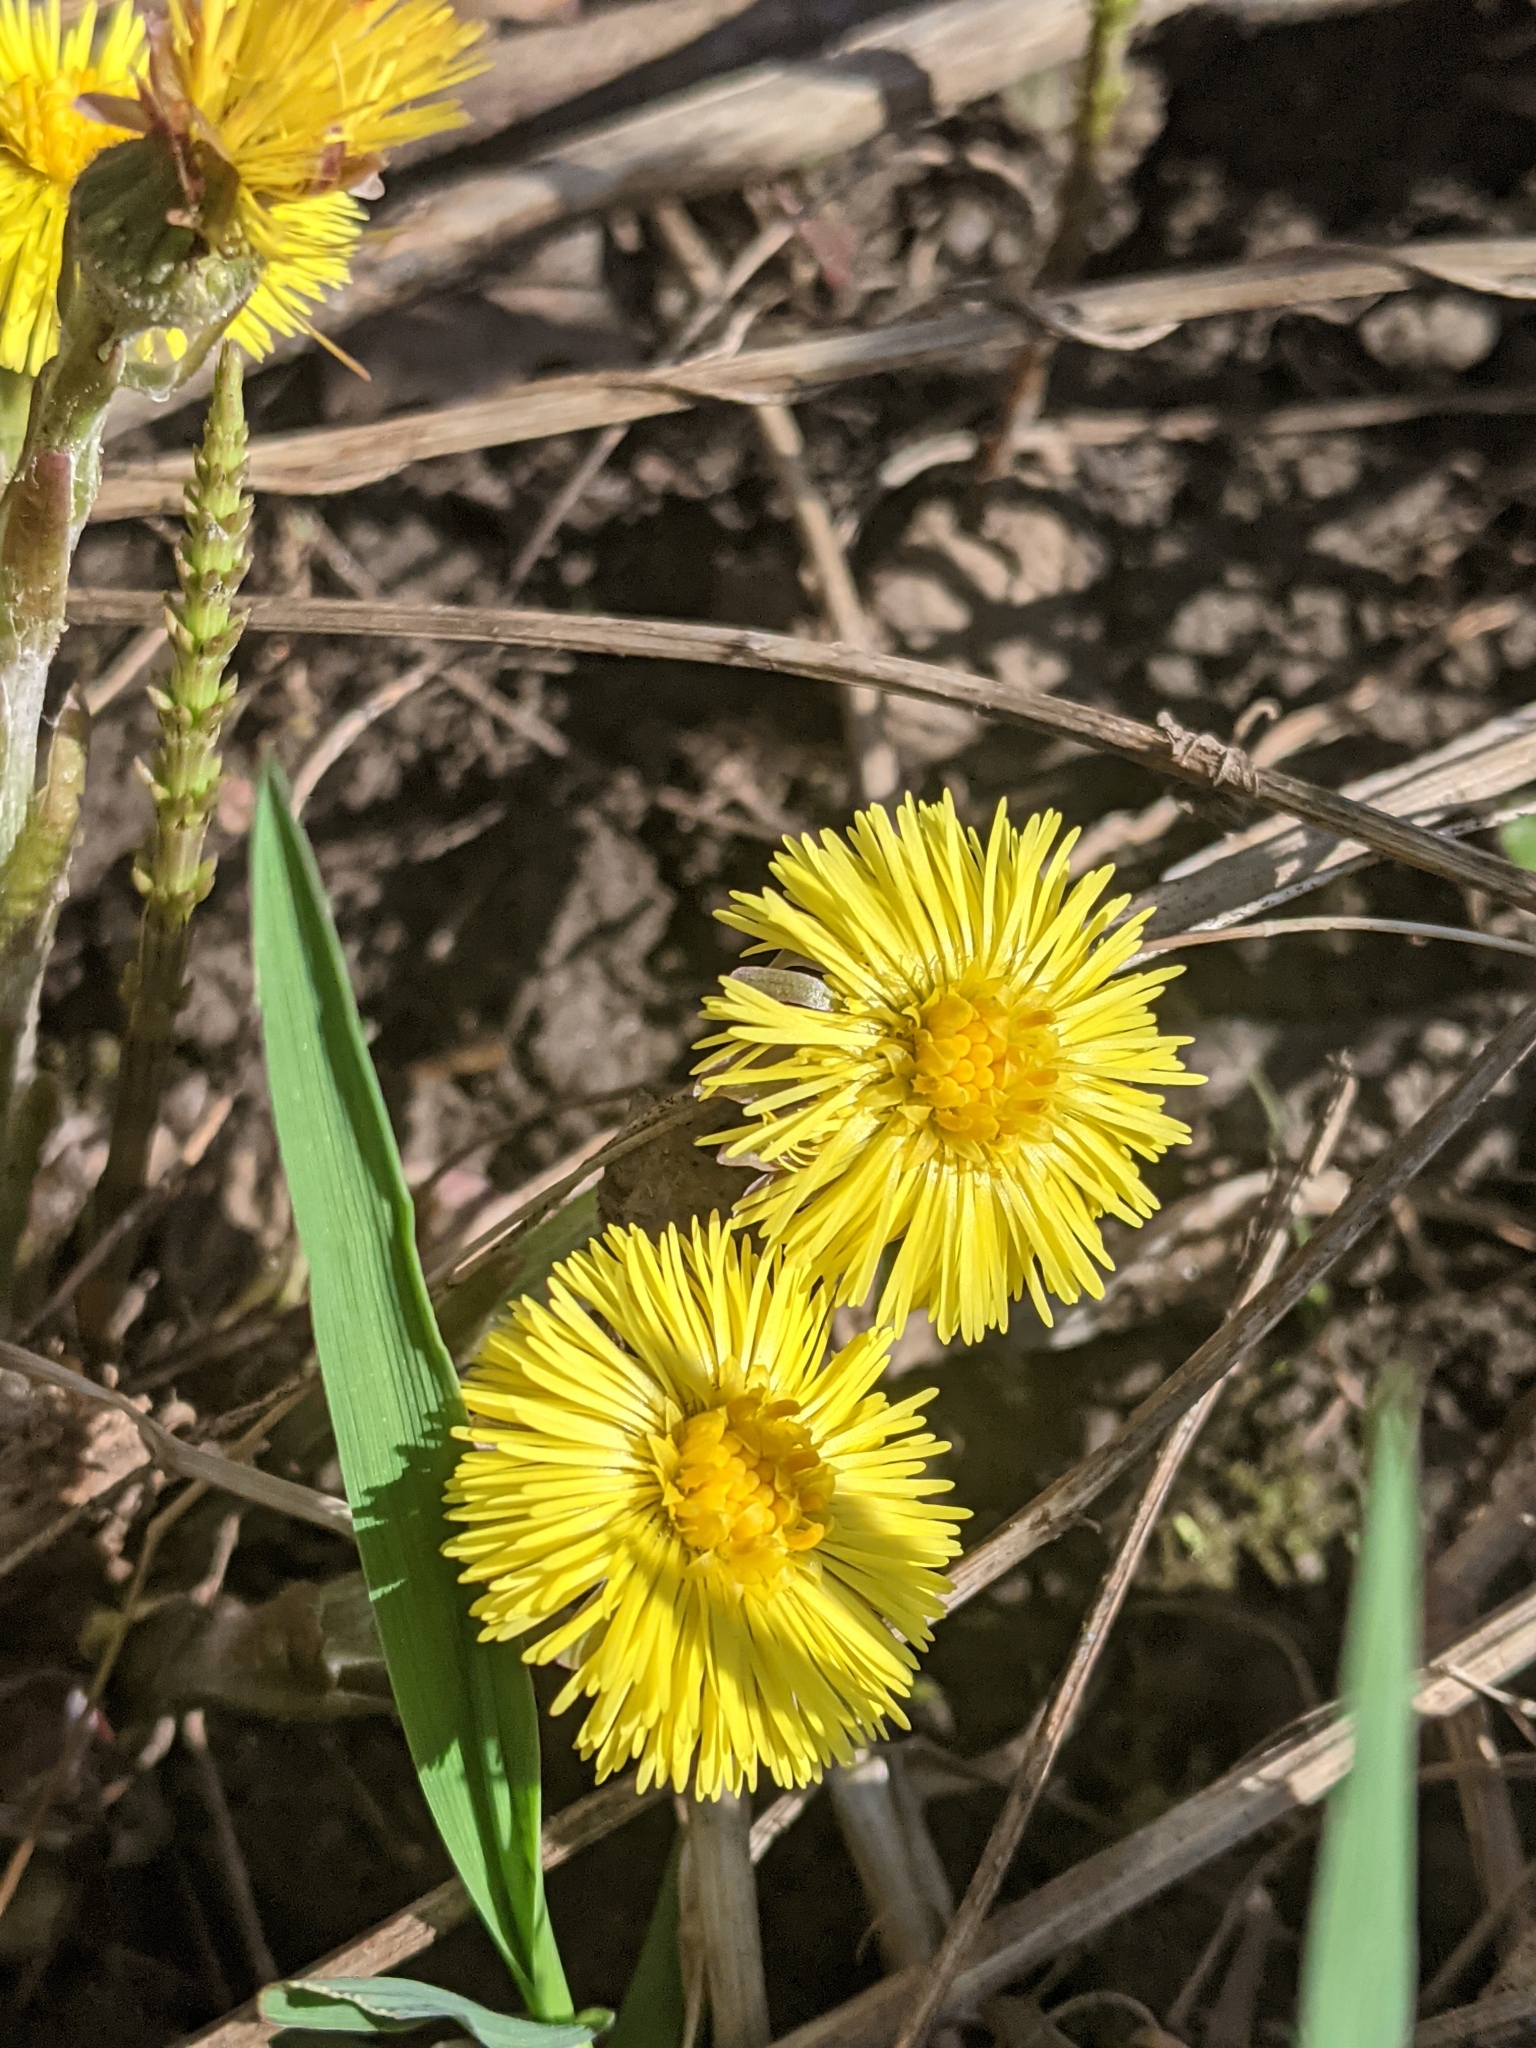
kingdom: Plantae
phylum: Tracheophyta
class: Magnoliopsida
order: Asterales
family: Asteraceae
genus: Tussilago
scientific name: Tussilago farfara
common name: Coltsfoot
